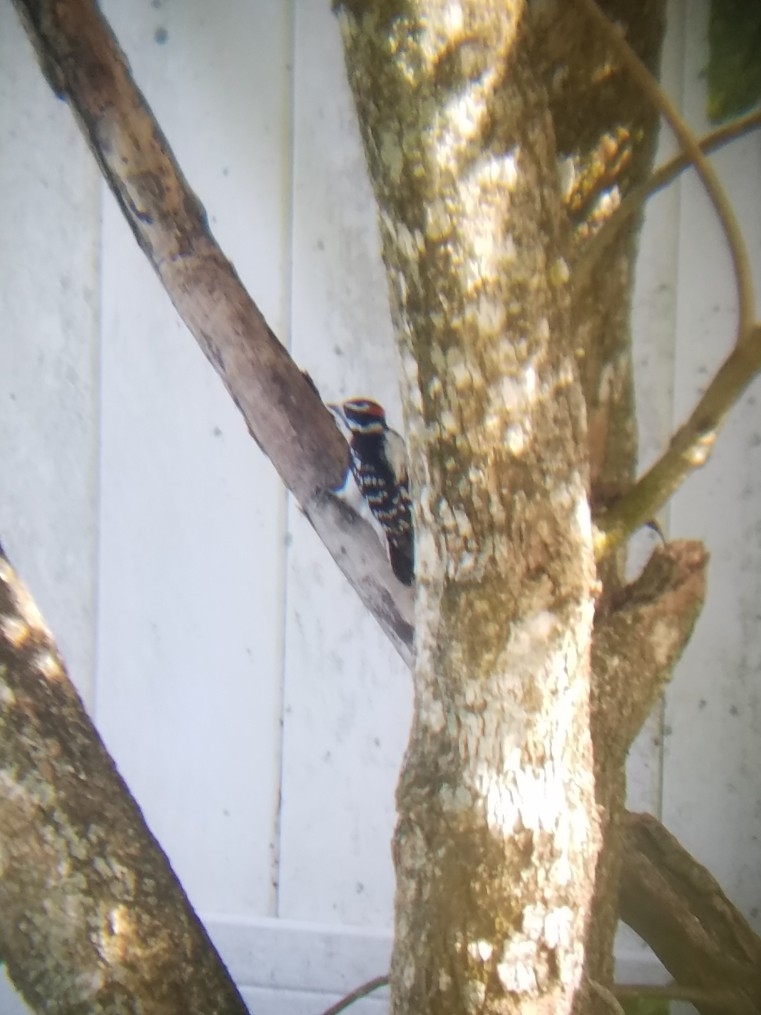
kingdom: Animalia
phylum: Chordata
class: Aves
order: Piciformes
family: Picidae
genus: Dryobates
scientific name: Dryobates pubescens
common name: Downy woodpecker
